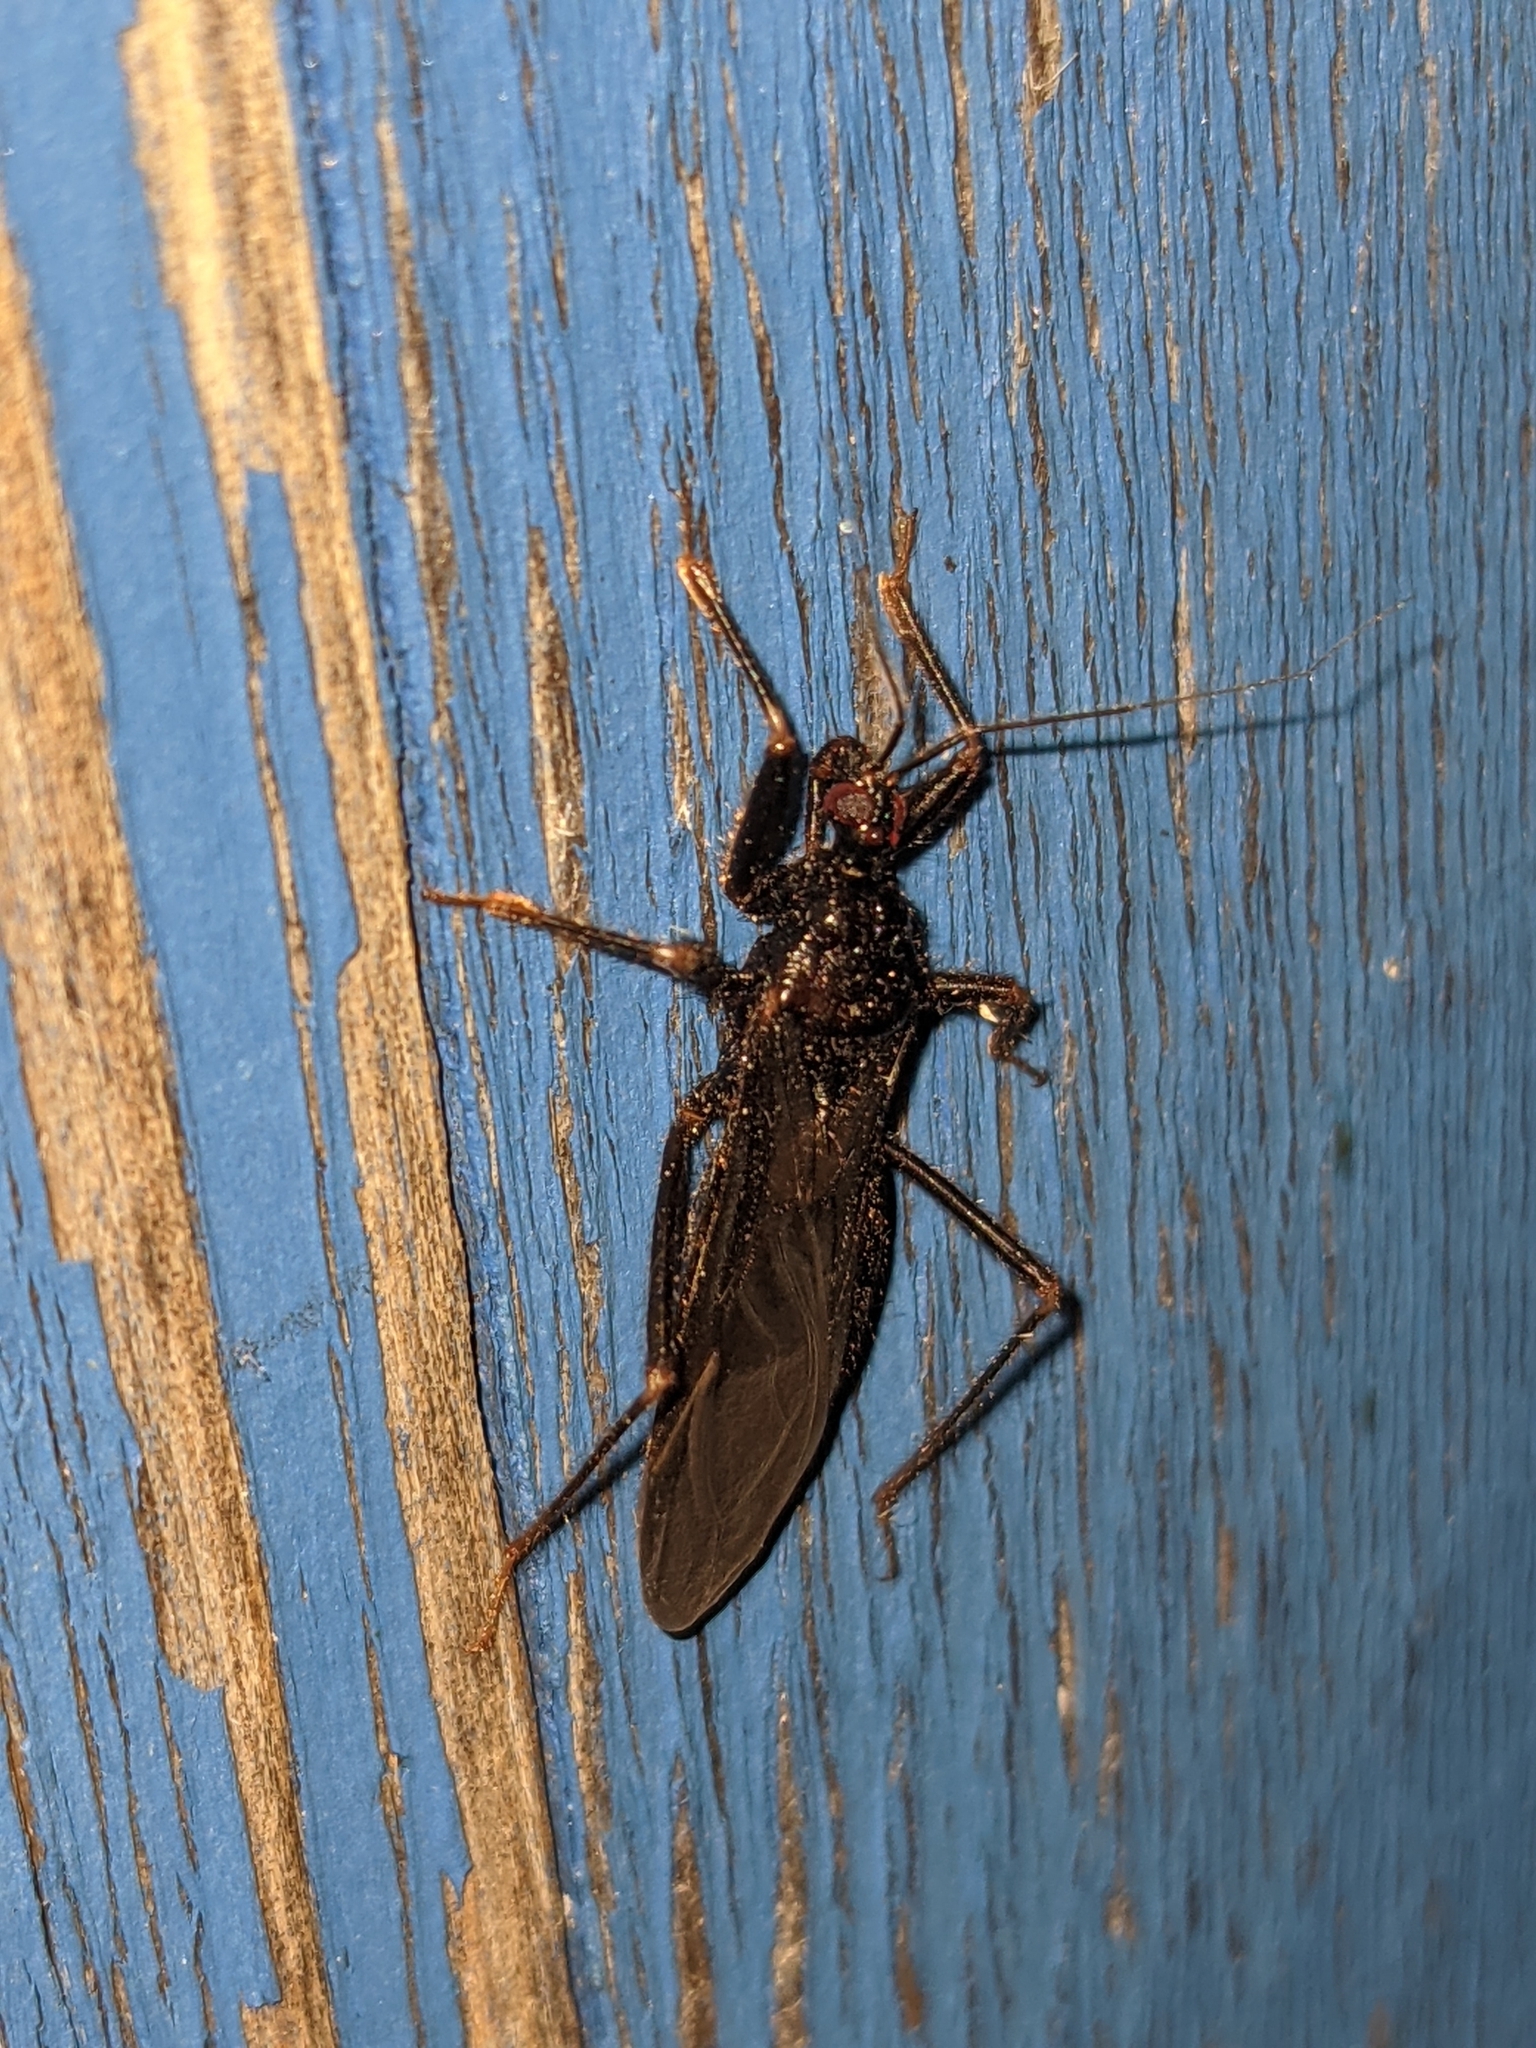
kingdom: Animalia
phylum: Arthropoda
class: Insecta
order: Hemiptera
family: Reduviidae
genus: Reduvius
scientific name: Reduvius personatus
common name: Masked hunter
